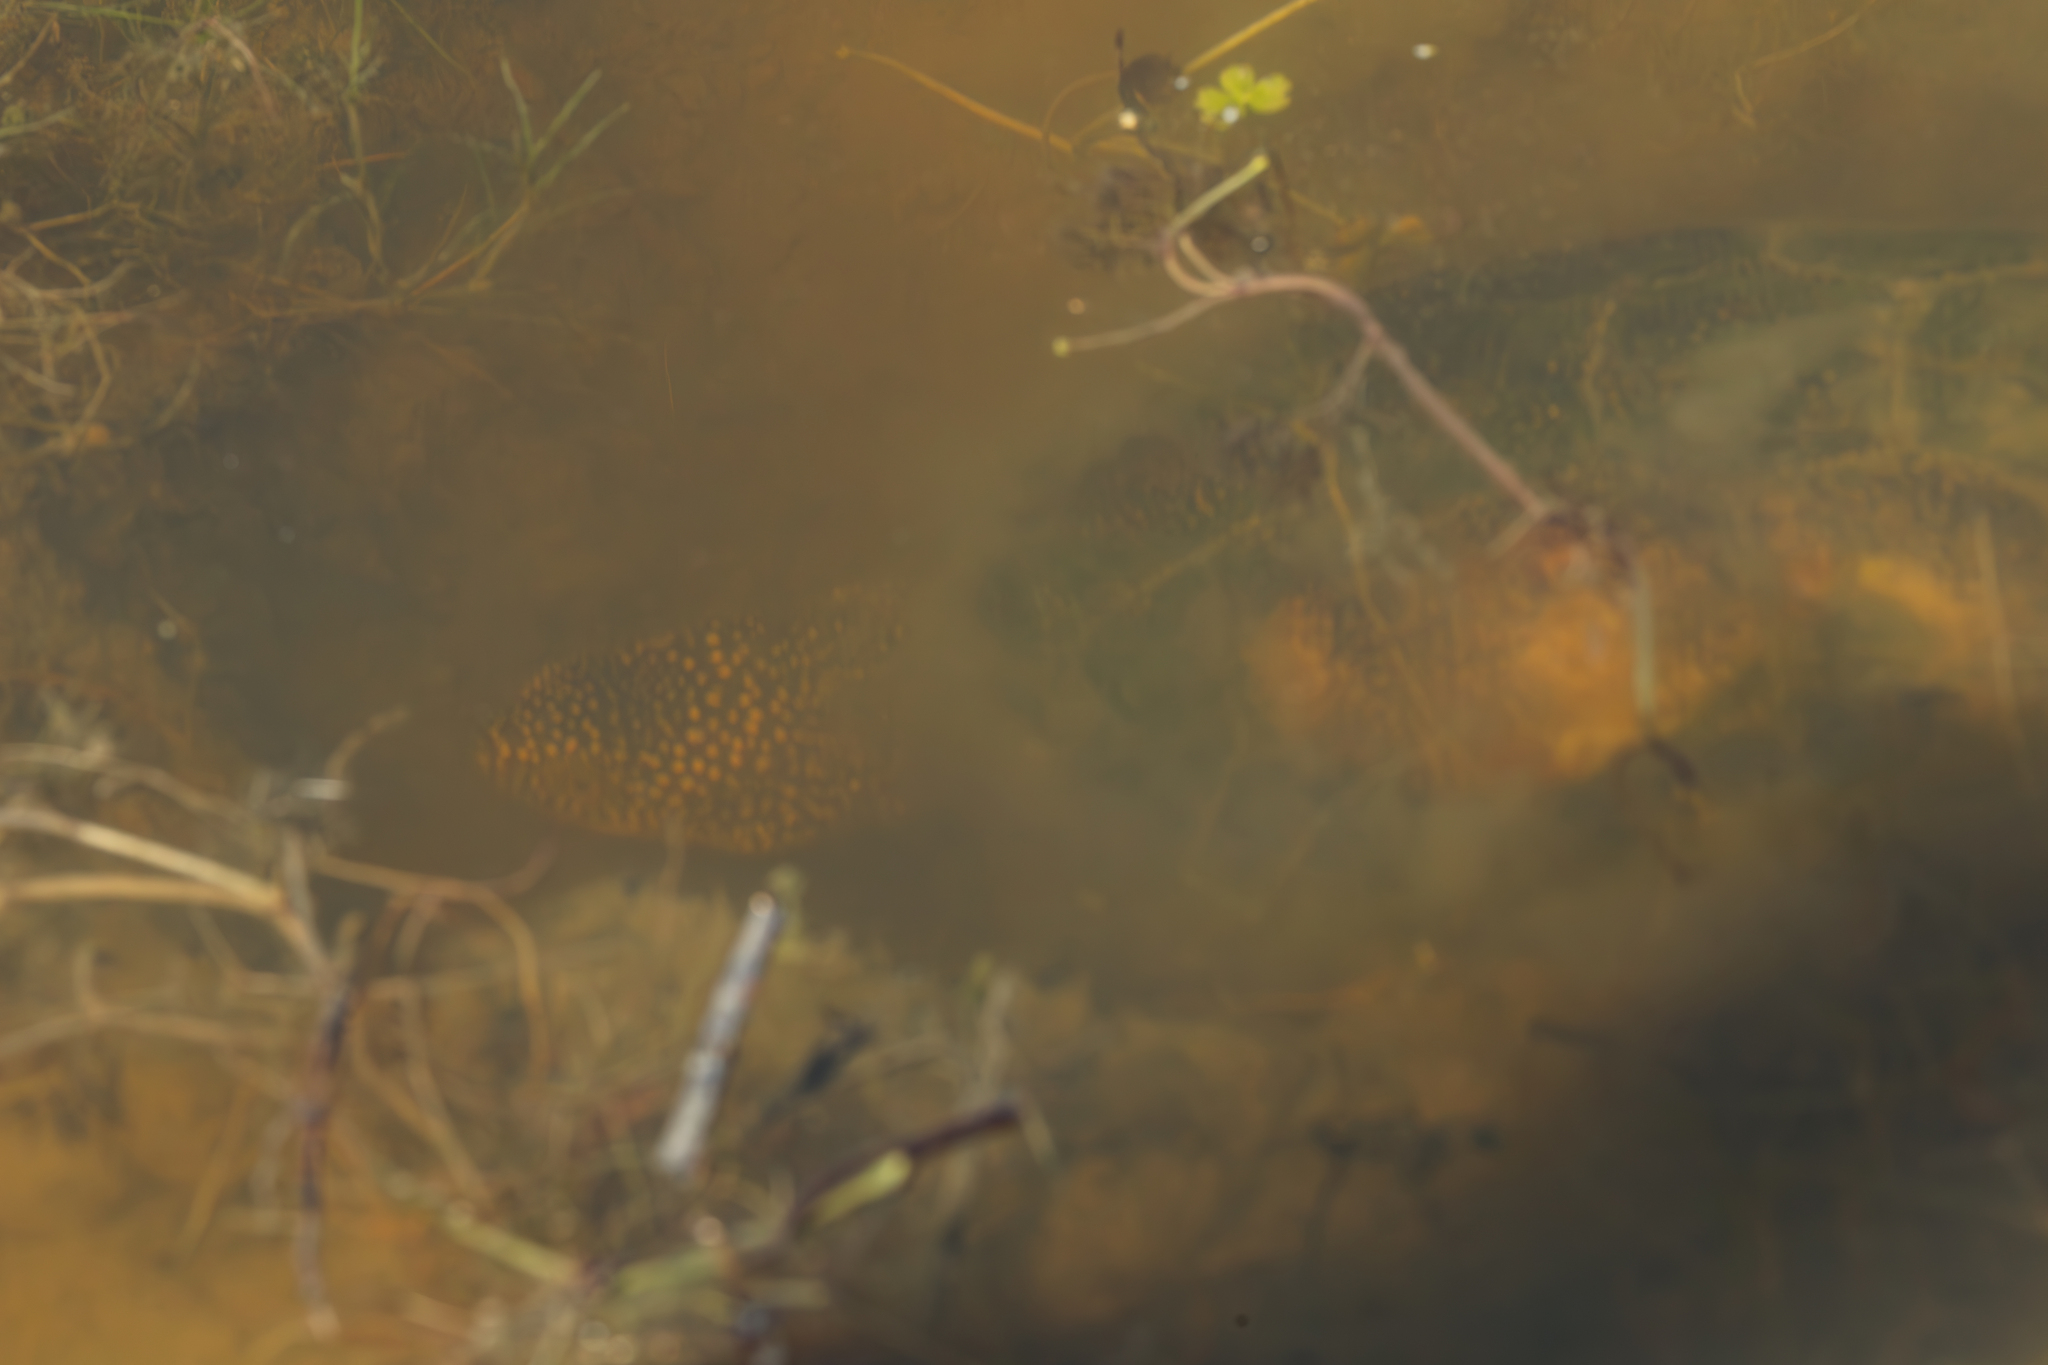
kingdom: Animalia
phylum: Chordata
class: Testudines
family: Emydidae
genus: Emys
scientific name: Emys orbicularis
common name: European pond turtle
